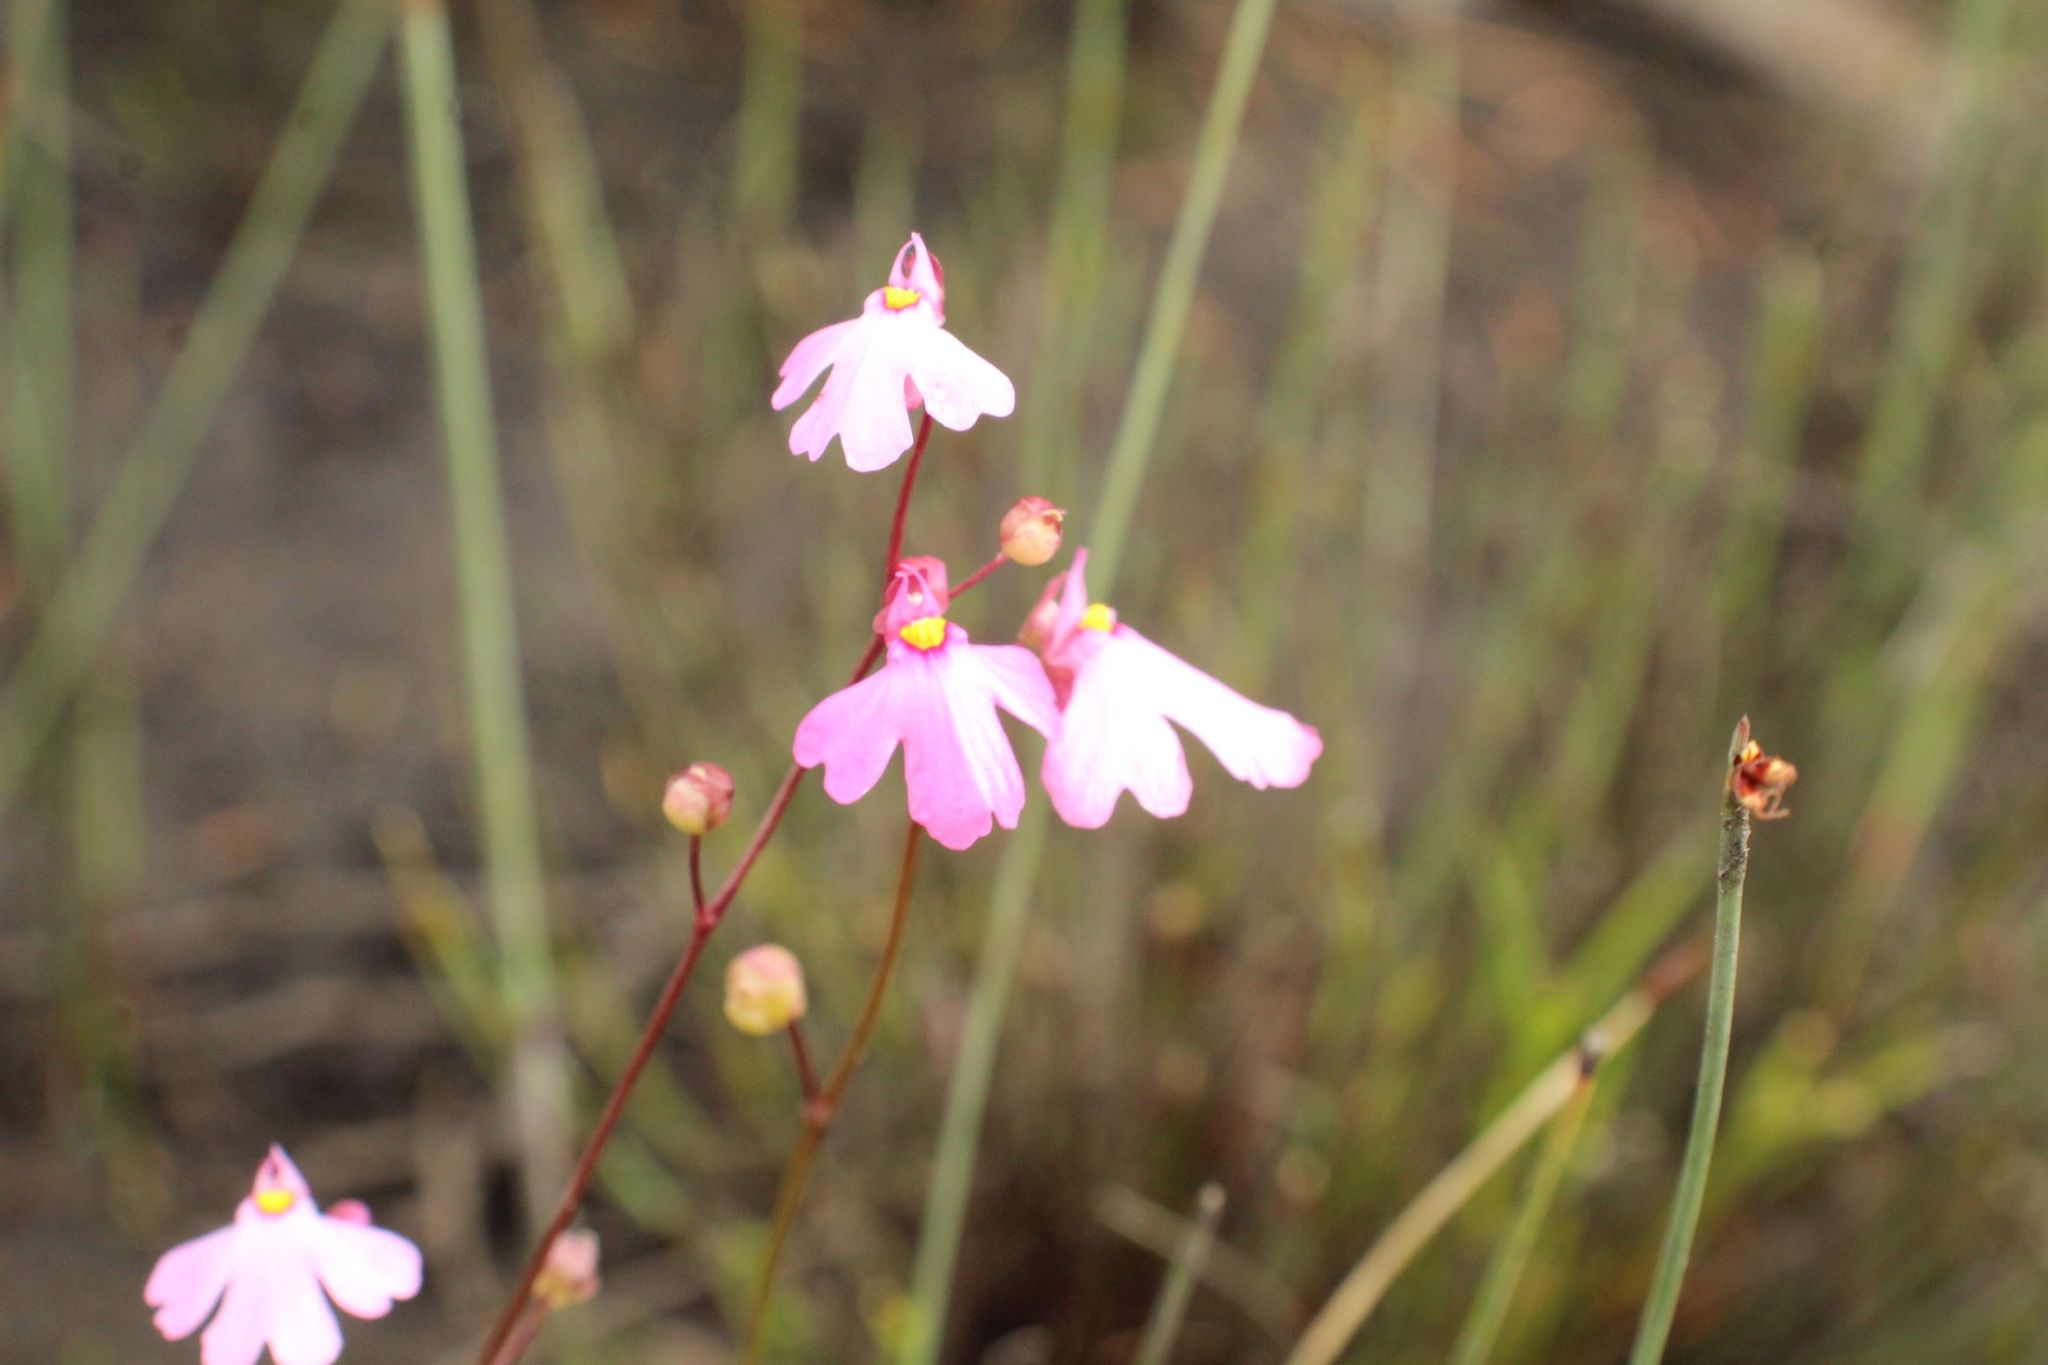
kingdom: Plantae
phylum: Tracheophyta
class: Magnoliopsida
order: Lamiales
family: Lentibulariaceae
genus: Utricularia
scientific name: Utricularia multifida
